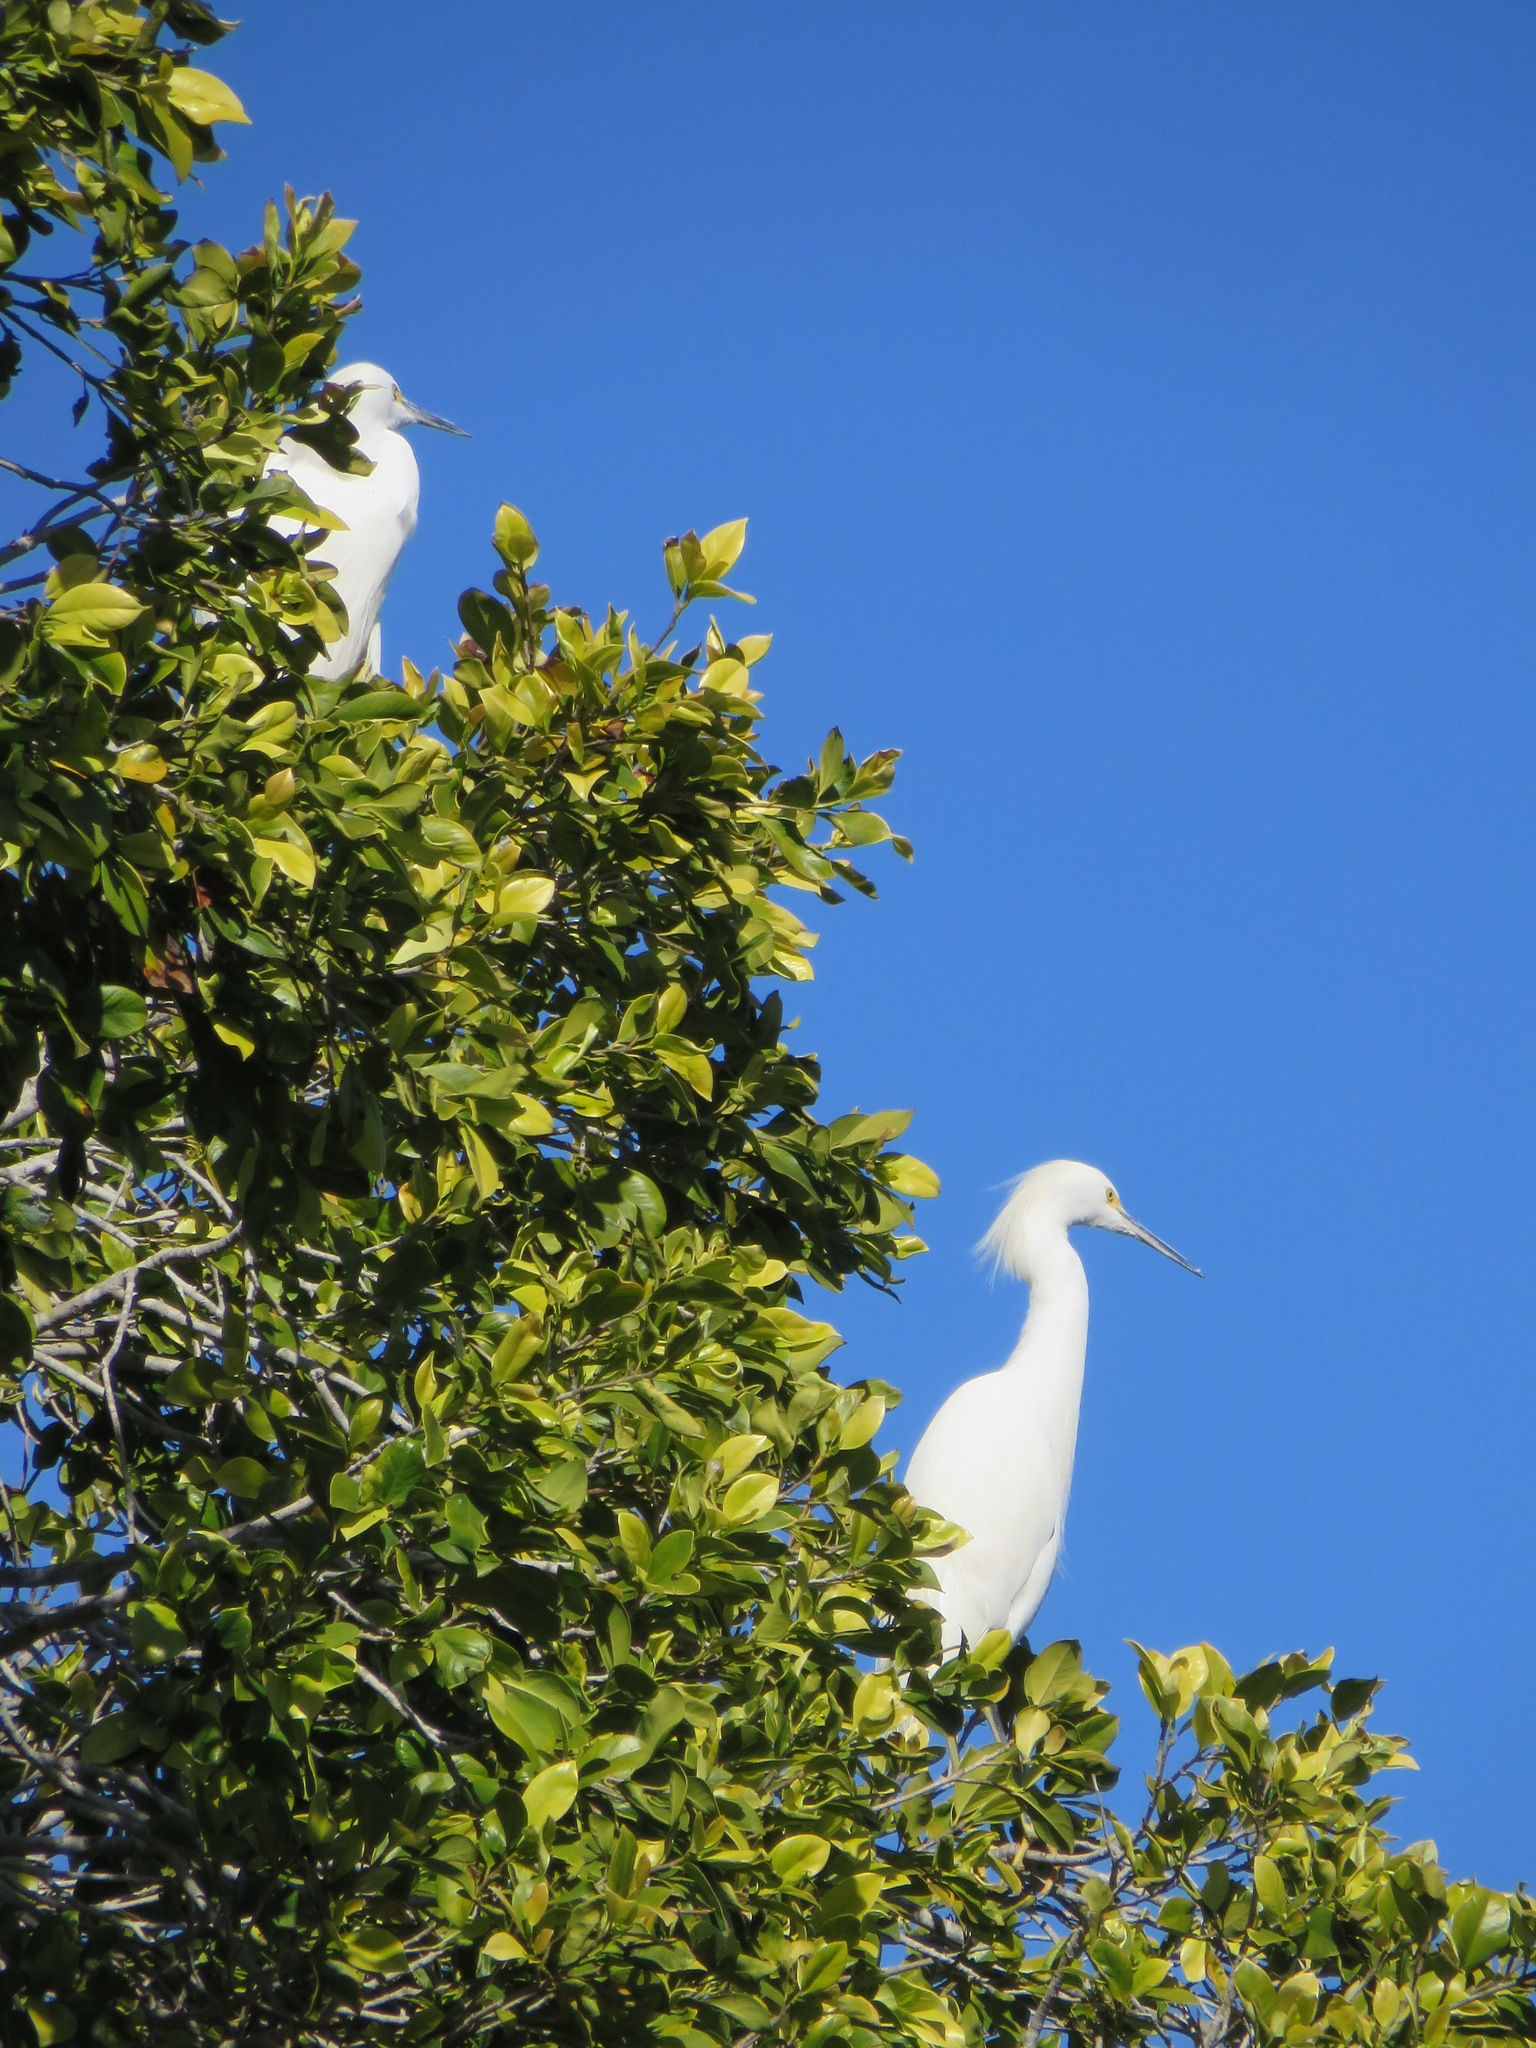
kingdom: Animalia
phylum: Chordata
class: Aves
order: Pelecaniformes
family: Ardeidae
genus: Egretta
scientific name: Egretta thula
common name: Snowy egret
